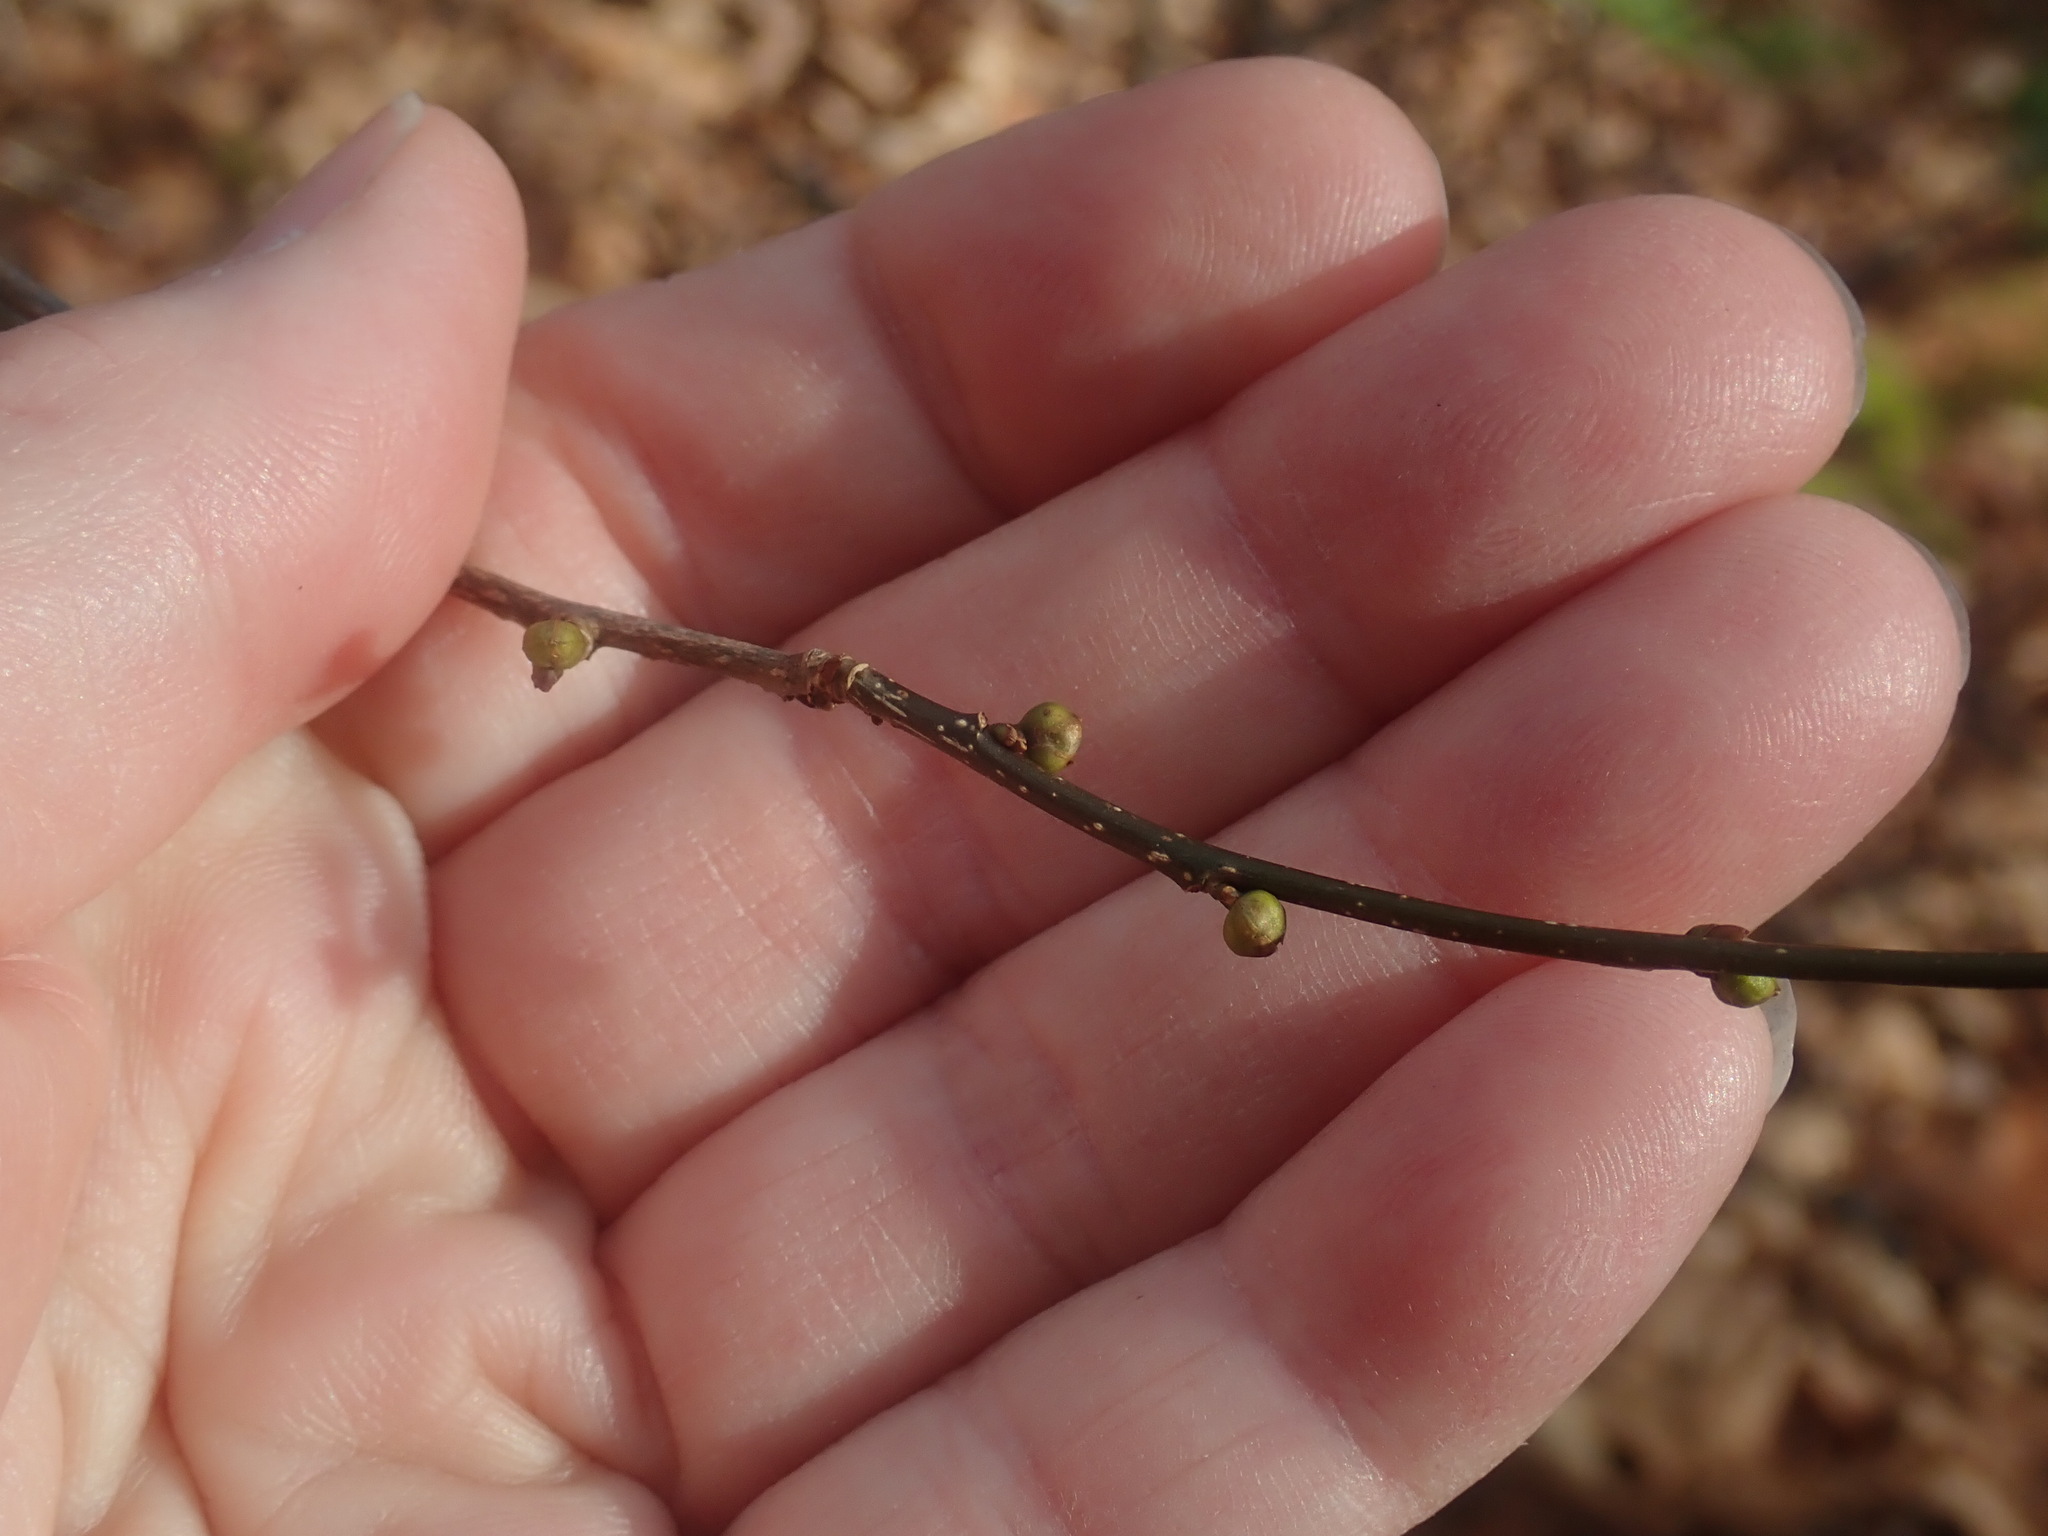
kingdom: Plantae
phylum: Tracheophyta
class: Magnoliopsida
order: Laurales
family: Lauraceae
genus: Lindera
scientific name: Lindera benzoin
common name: Spicebush
